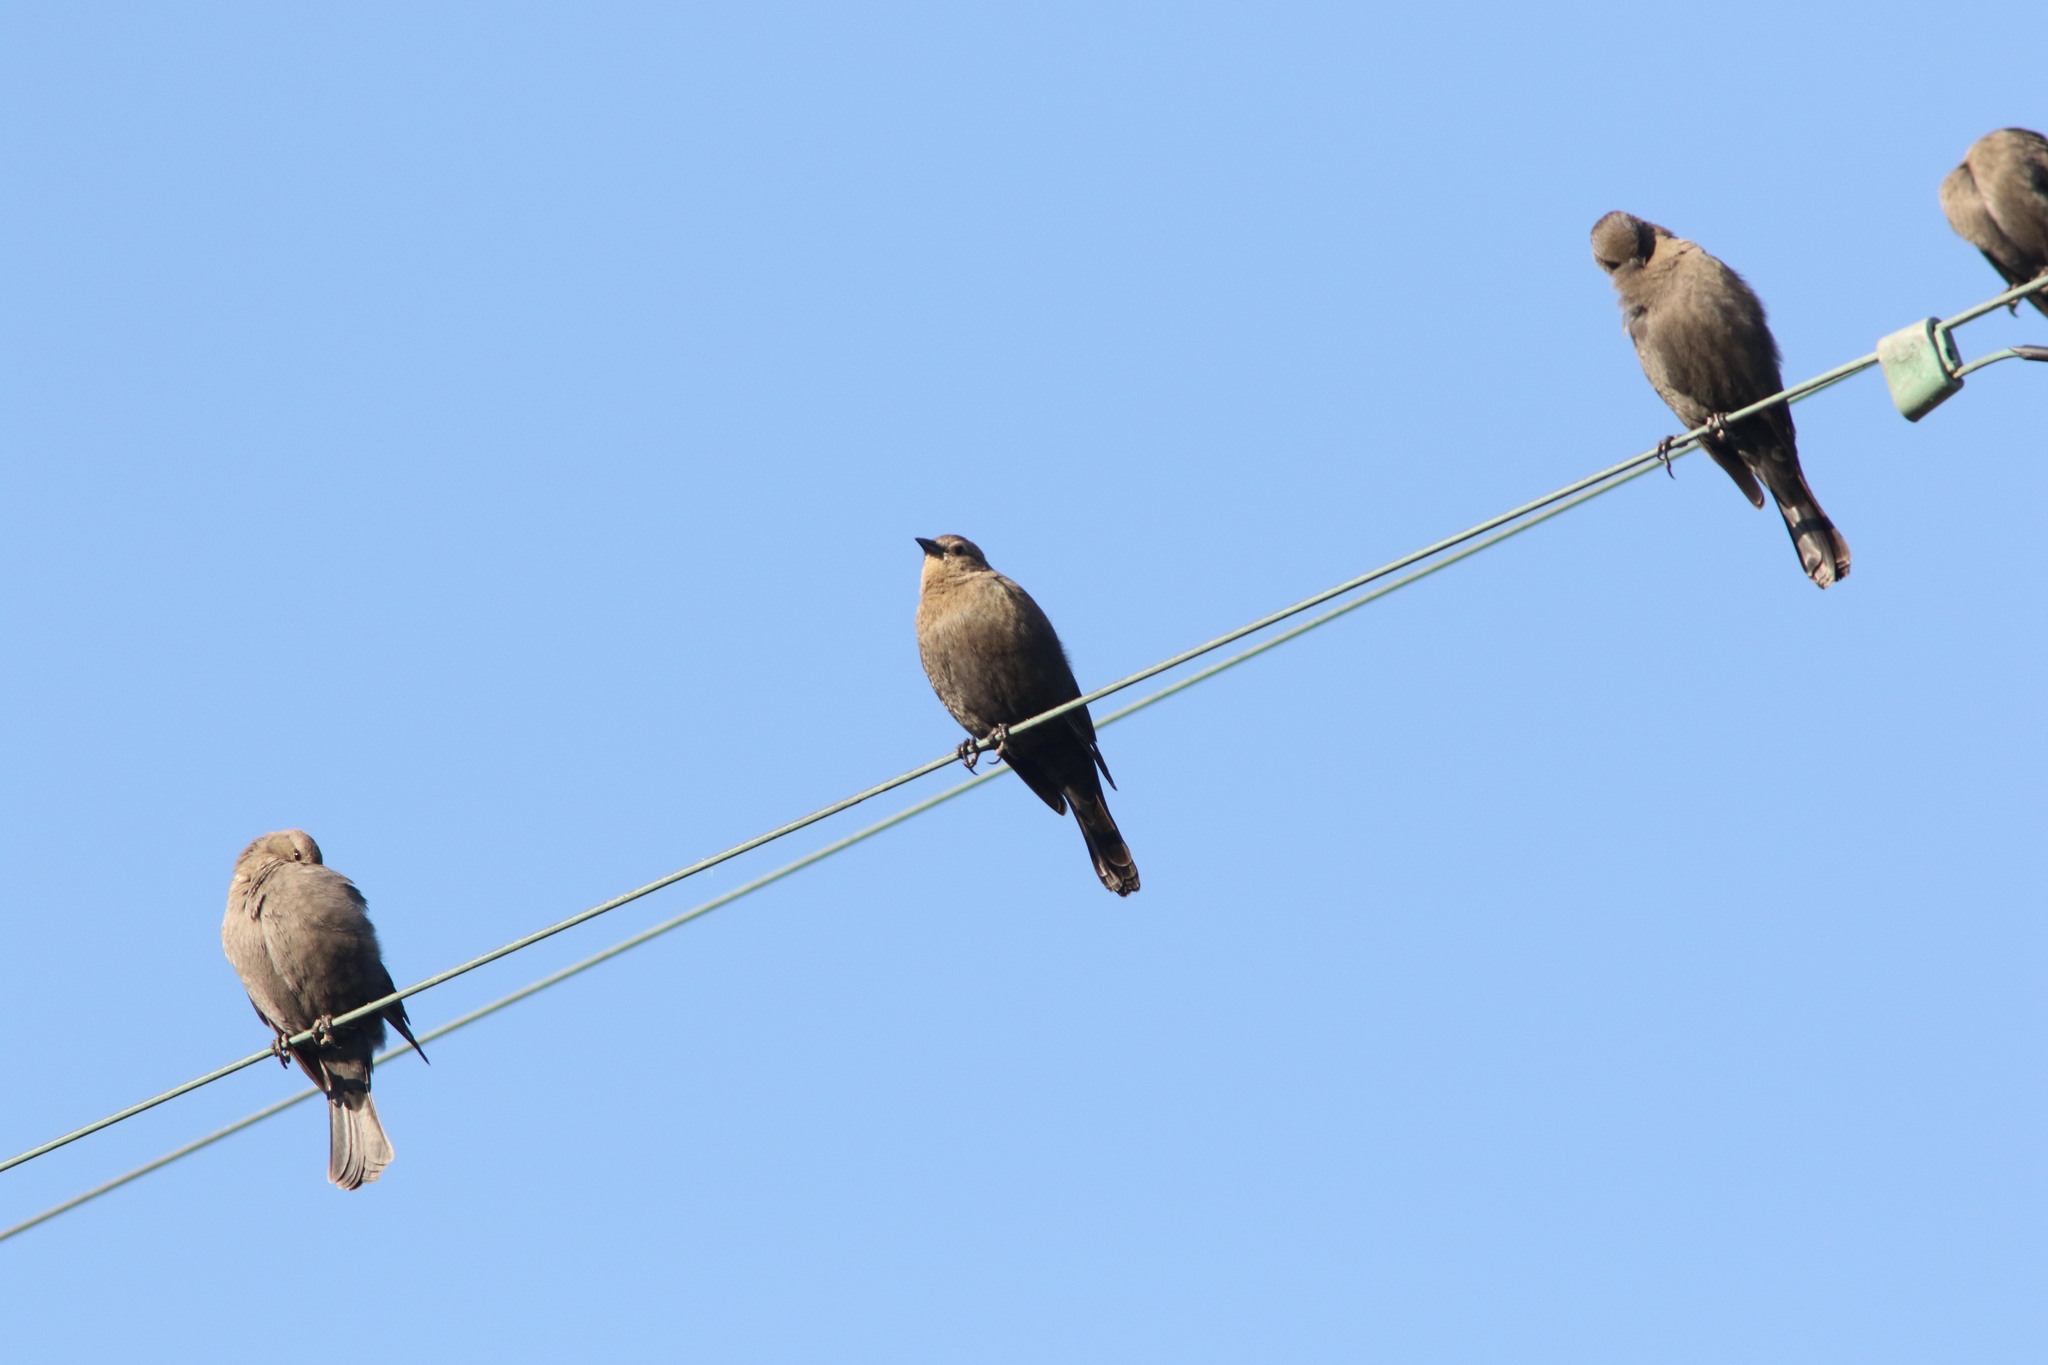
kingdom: Animalia
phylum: Chordata
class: Aves
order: Passeriformes
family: Icteridae
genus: Euphagus
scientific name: Euphagus cyanocephalus
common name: Brewer's blackbird
